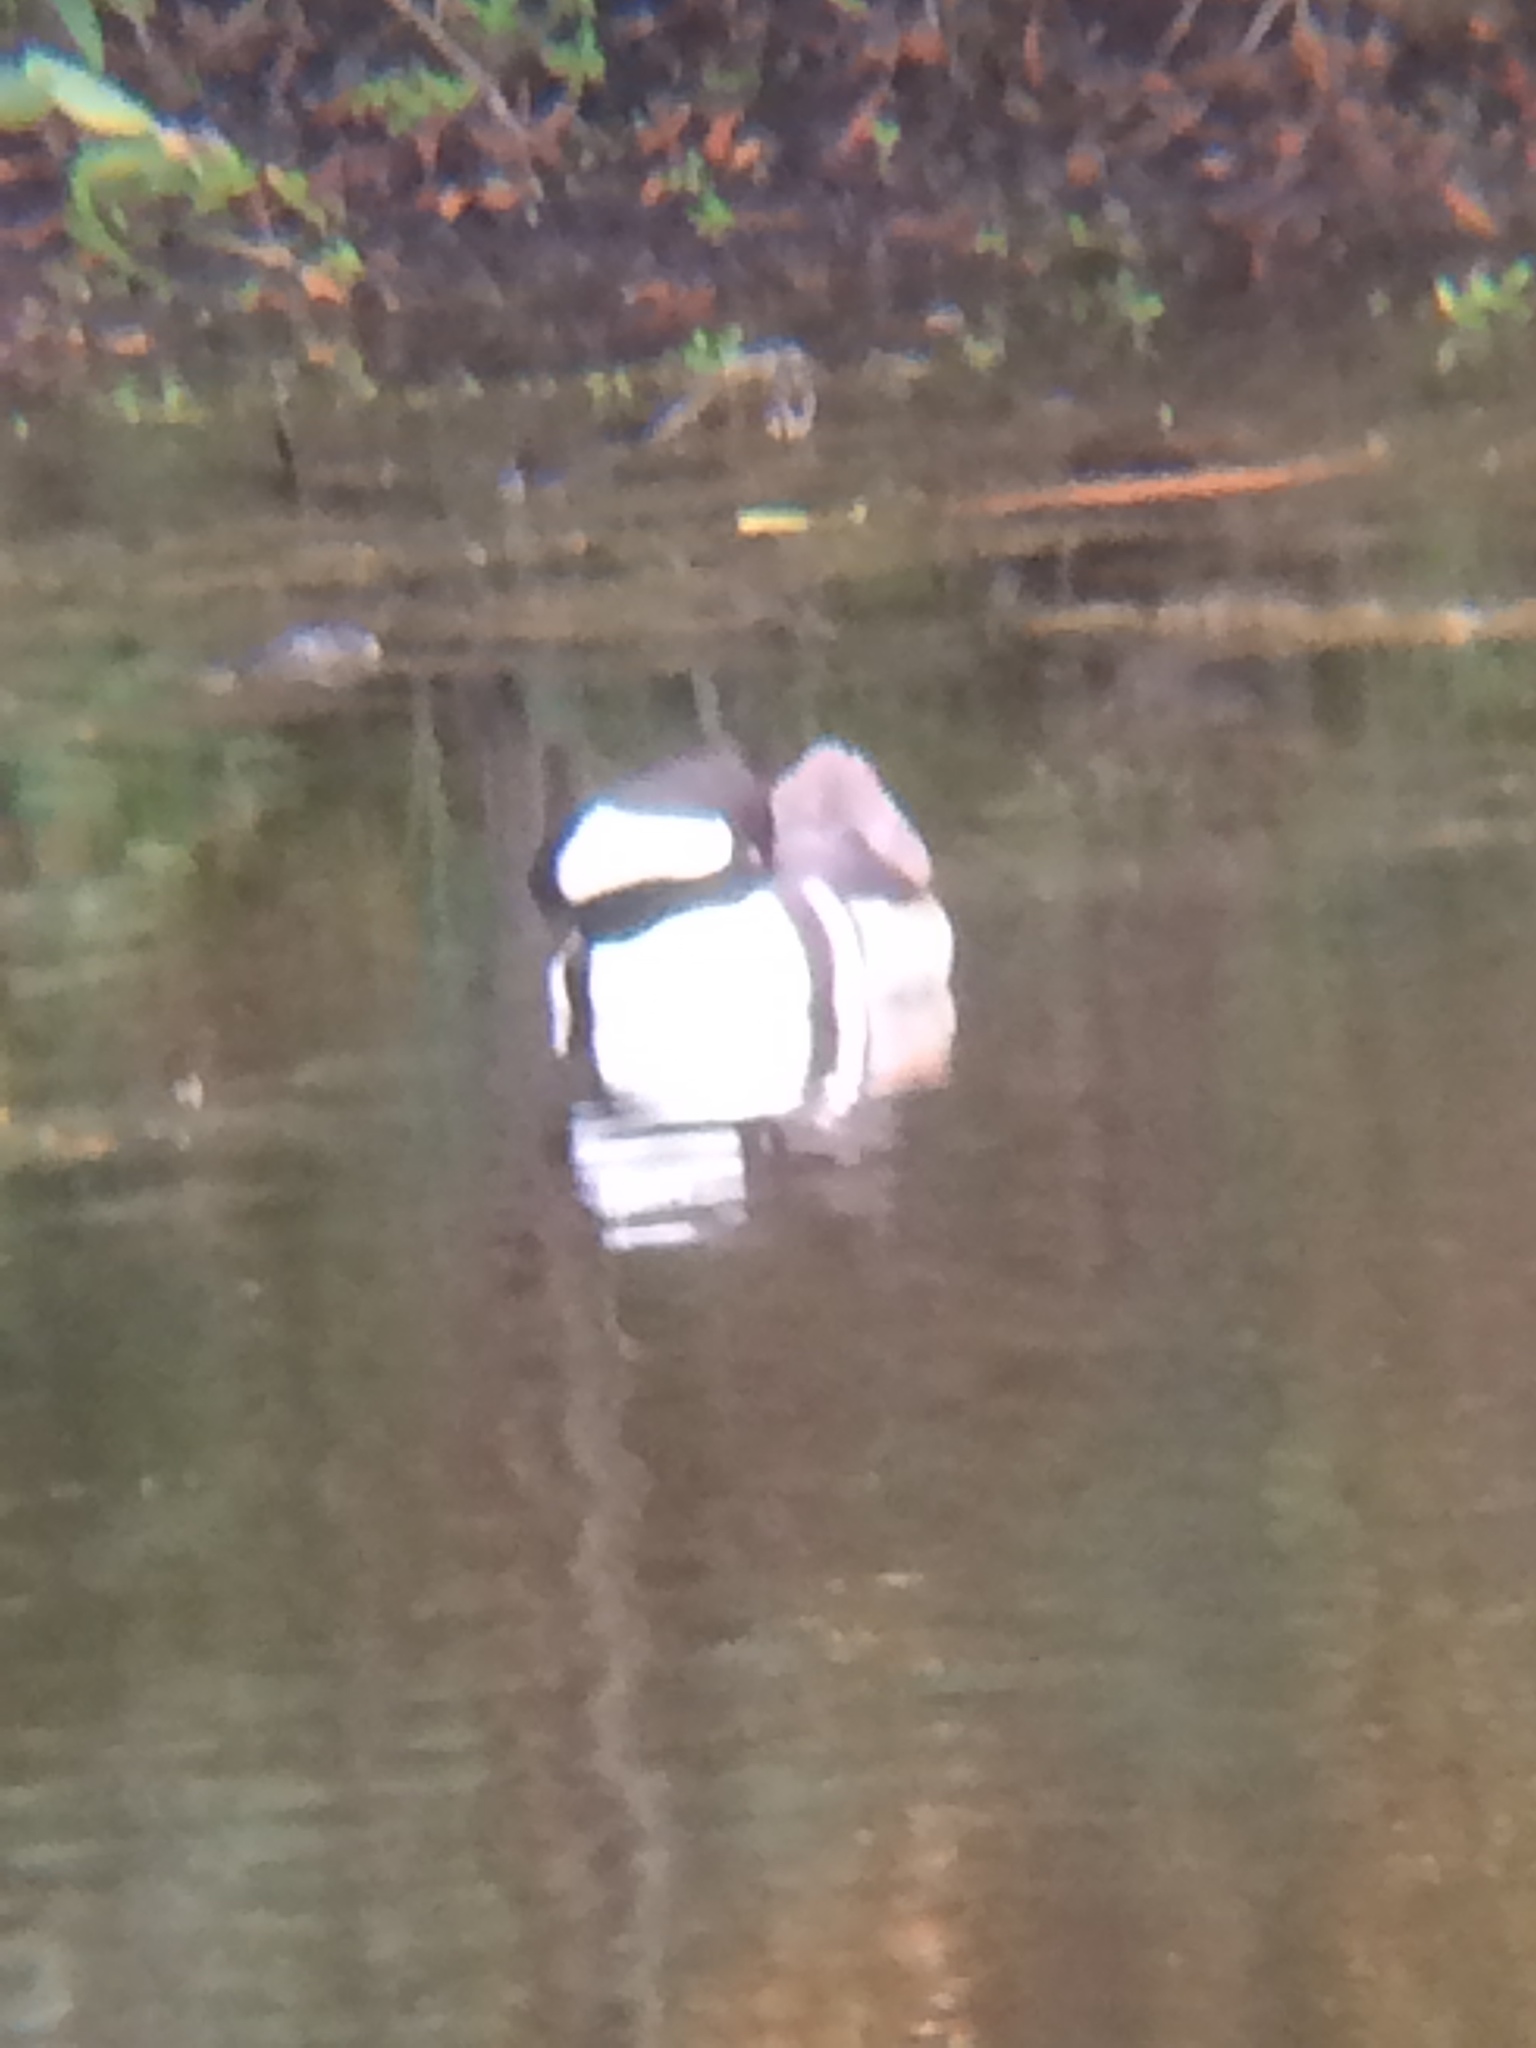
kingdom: Animalia
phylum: Chordata
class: Aves
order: Anseriformes
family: Anatidae
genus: Lophodytes
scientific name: Lophodytes cucullatus
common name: Hooded merganser
